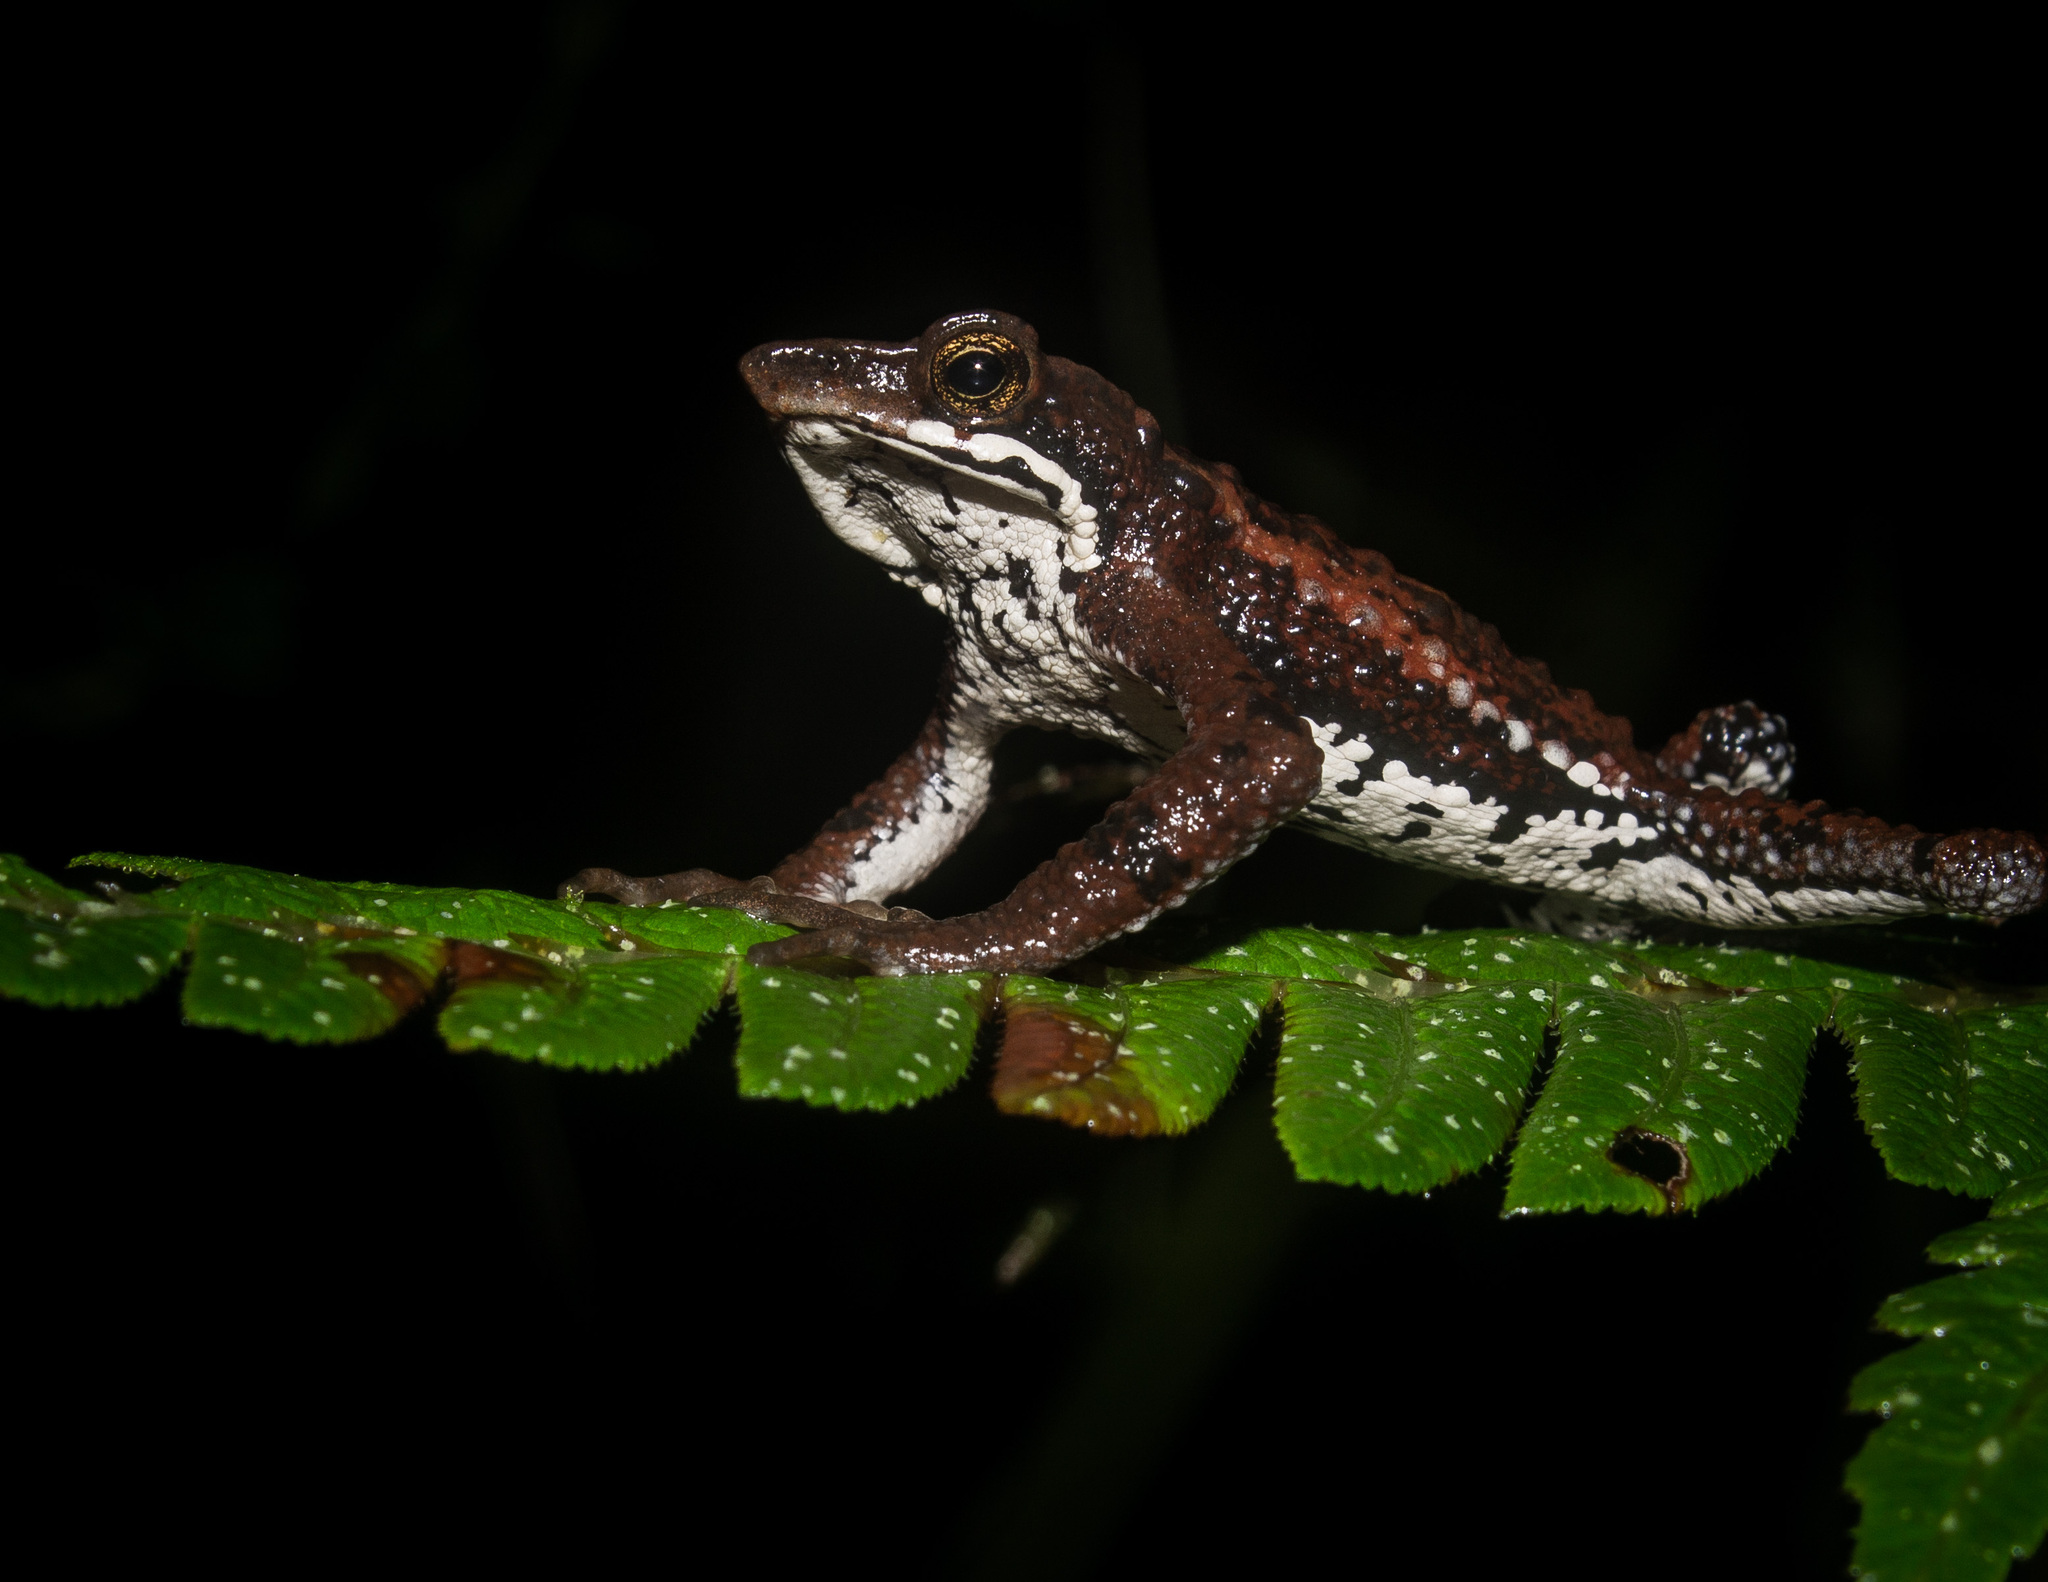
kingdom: Animalia
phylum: Chordata
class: Amphibia
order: Anura
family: Bufonidae
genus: Atelopus
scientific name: Atelopus laetissimus
